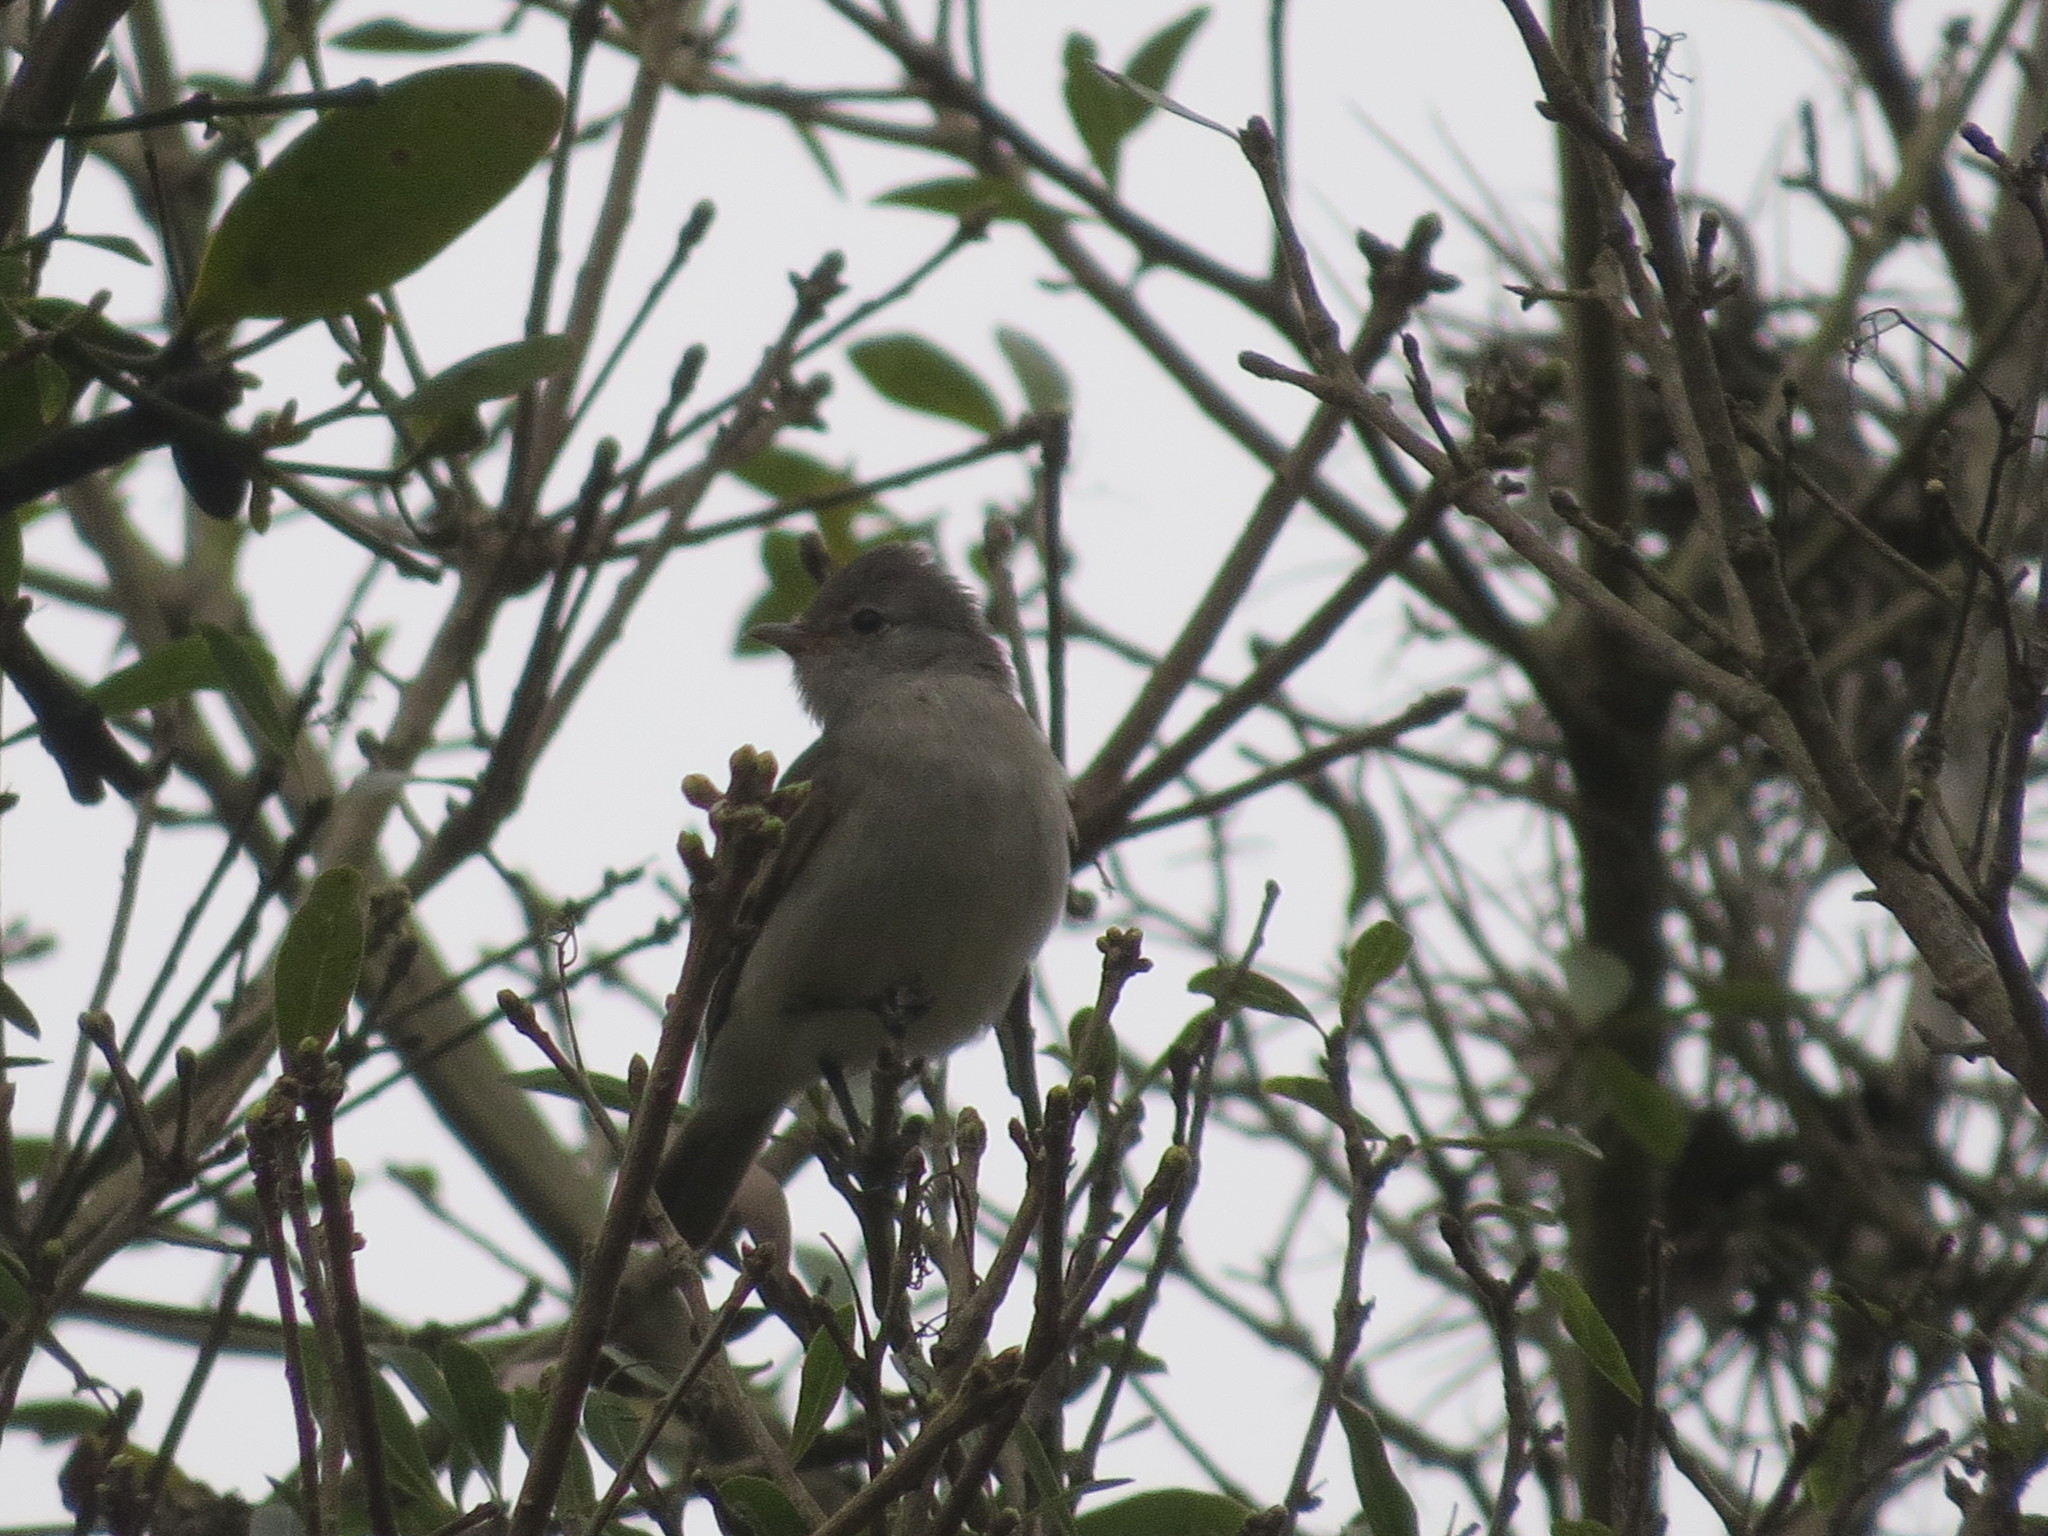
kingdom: Animalia
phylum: Chordata
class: Aves
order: Passeriformes
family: Tyrannidae
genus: Camptostoma
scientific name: Camptostoma obsoletum
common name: Southern beardless-tyrannulet
